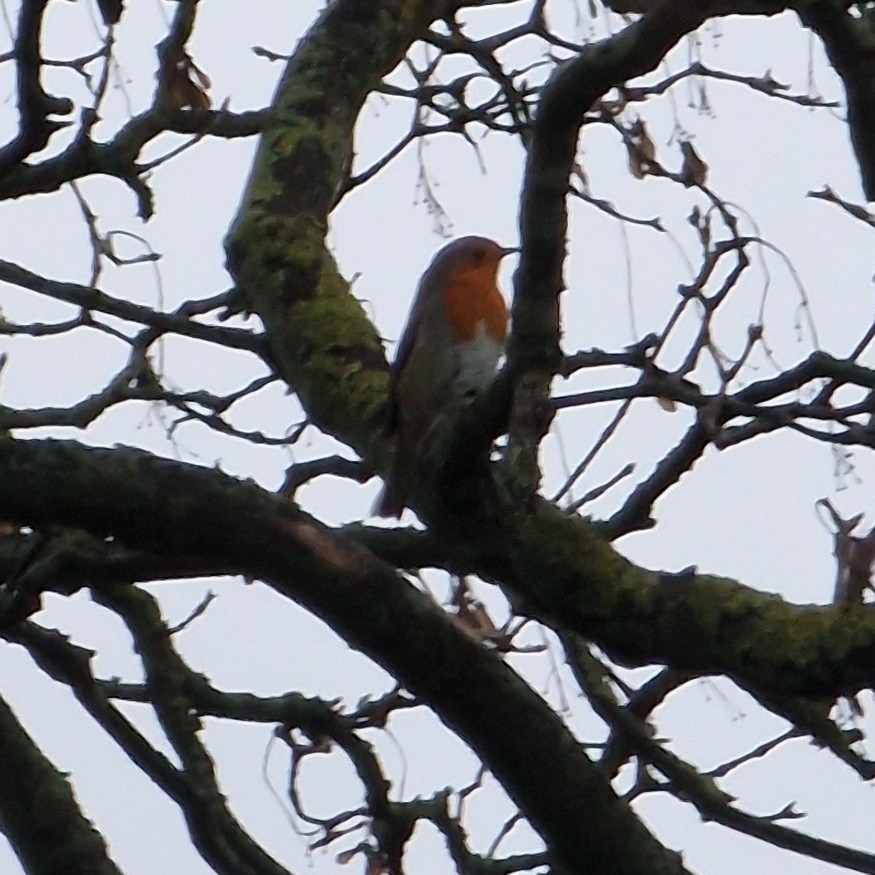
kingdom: Animalia
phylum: Chordata
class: Aves
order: Passeriformes
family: Muscicapidae
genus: Erithacus
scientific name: Erithacus rubecula
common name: European robin
